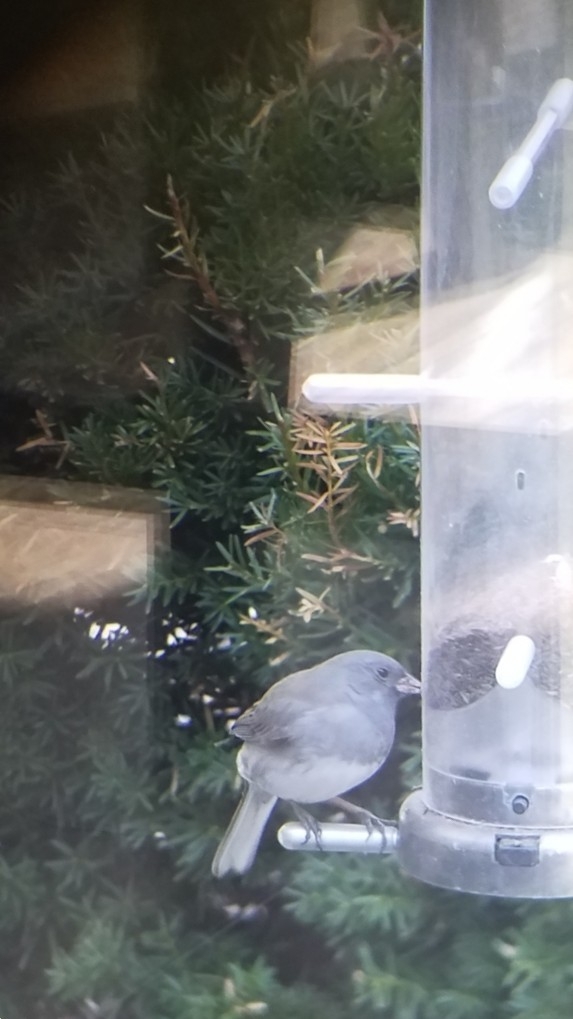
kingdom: Animalia
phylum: Chordata
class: Aves
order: Passeriformes
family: Passerellidae
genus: Junco
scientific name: Junco hyemalis
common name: Dark-eyed junco
